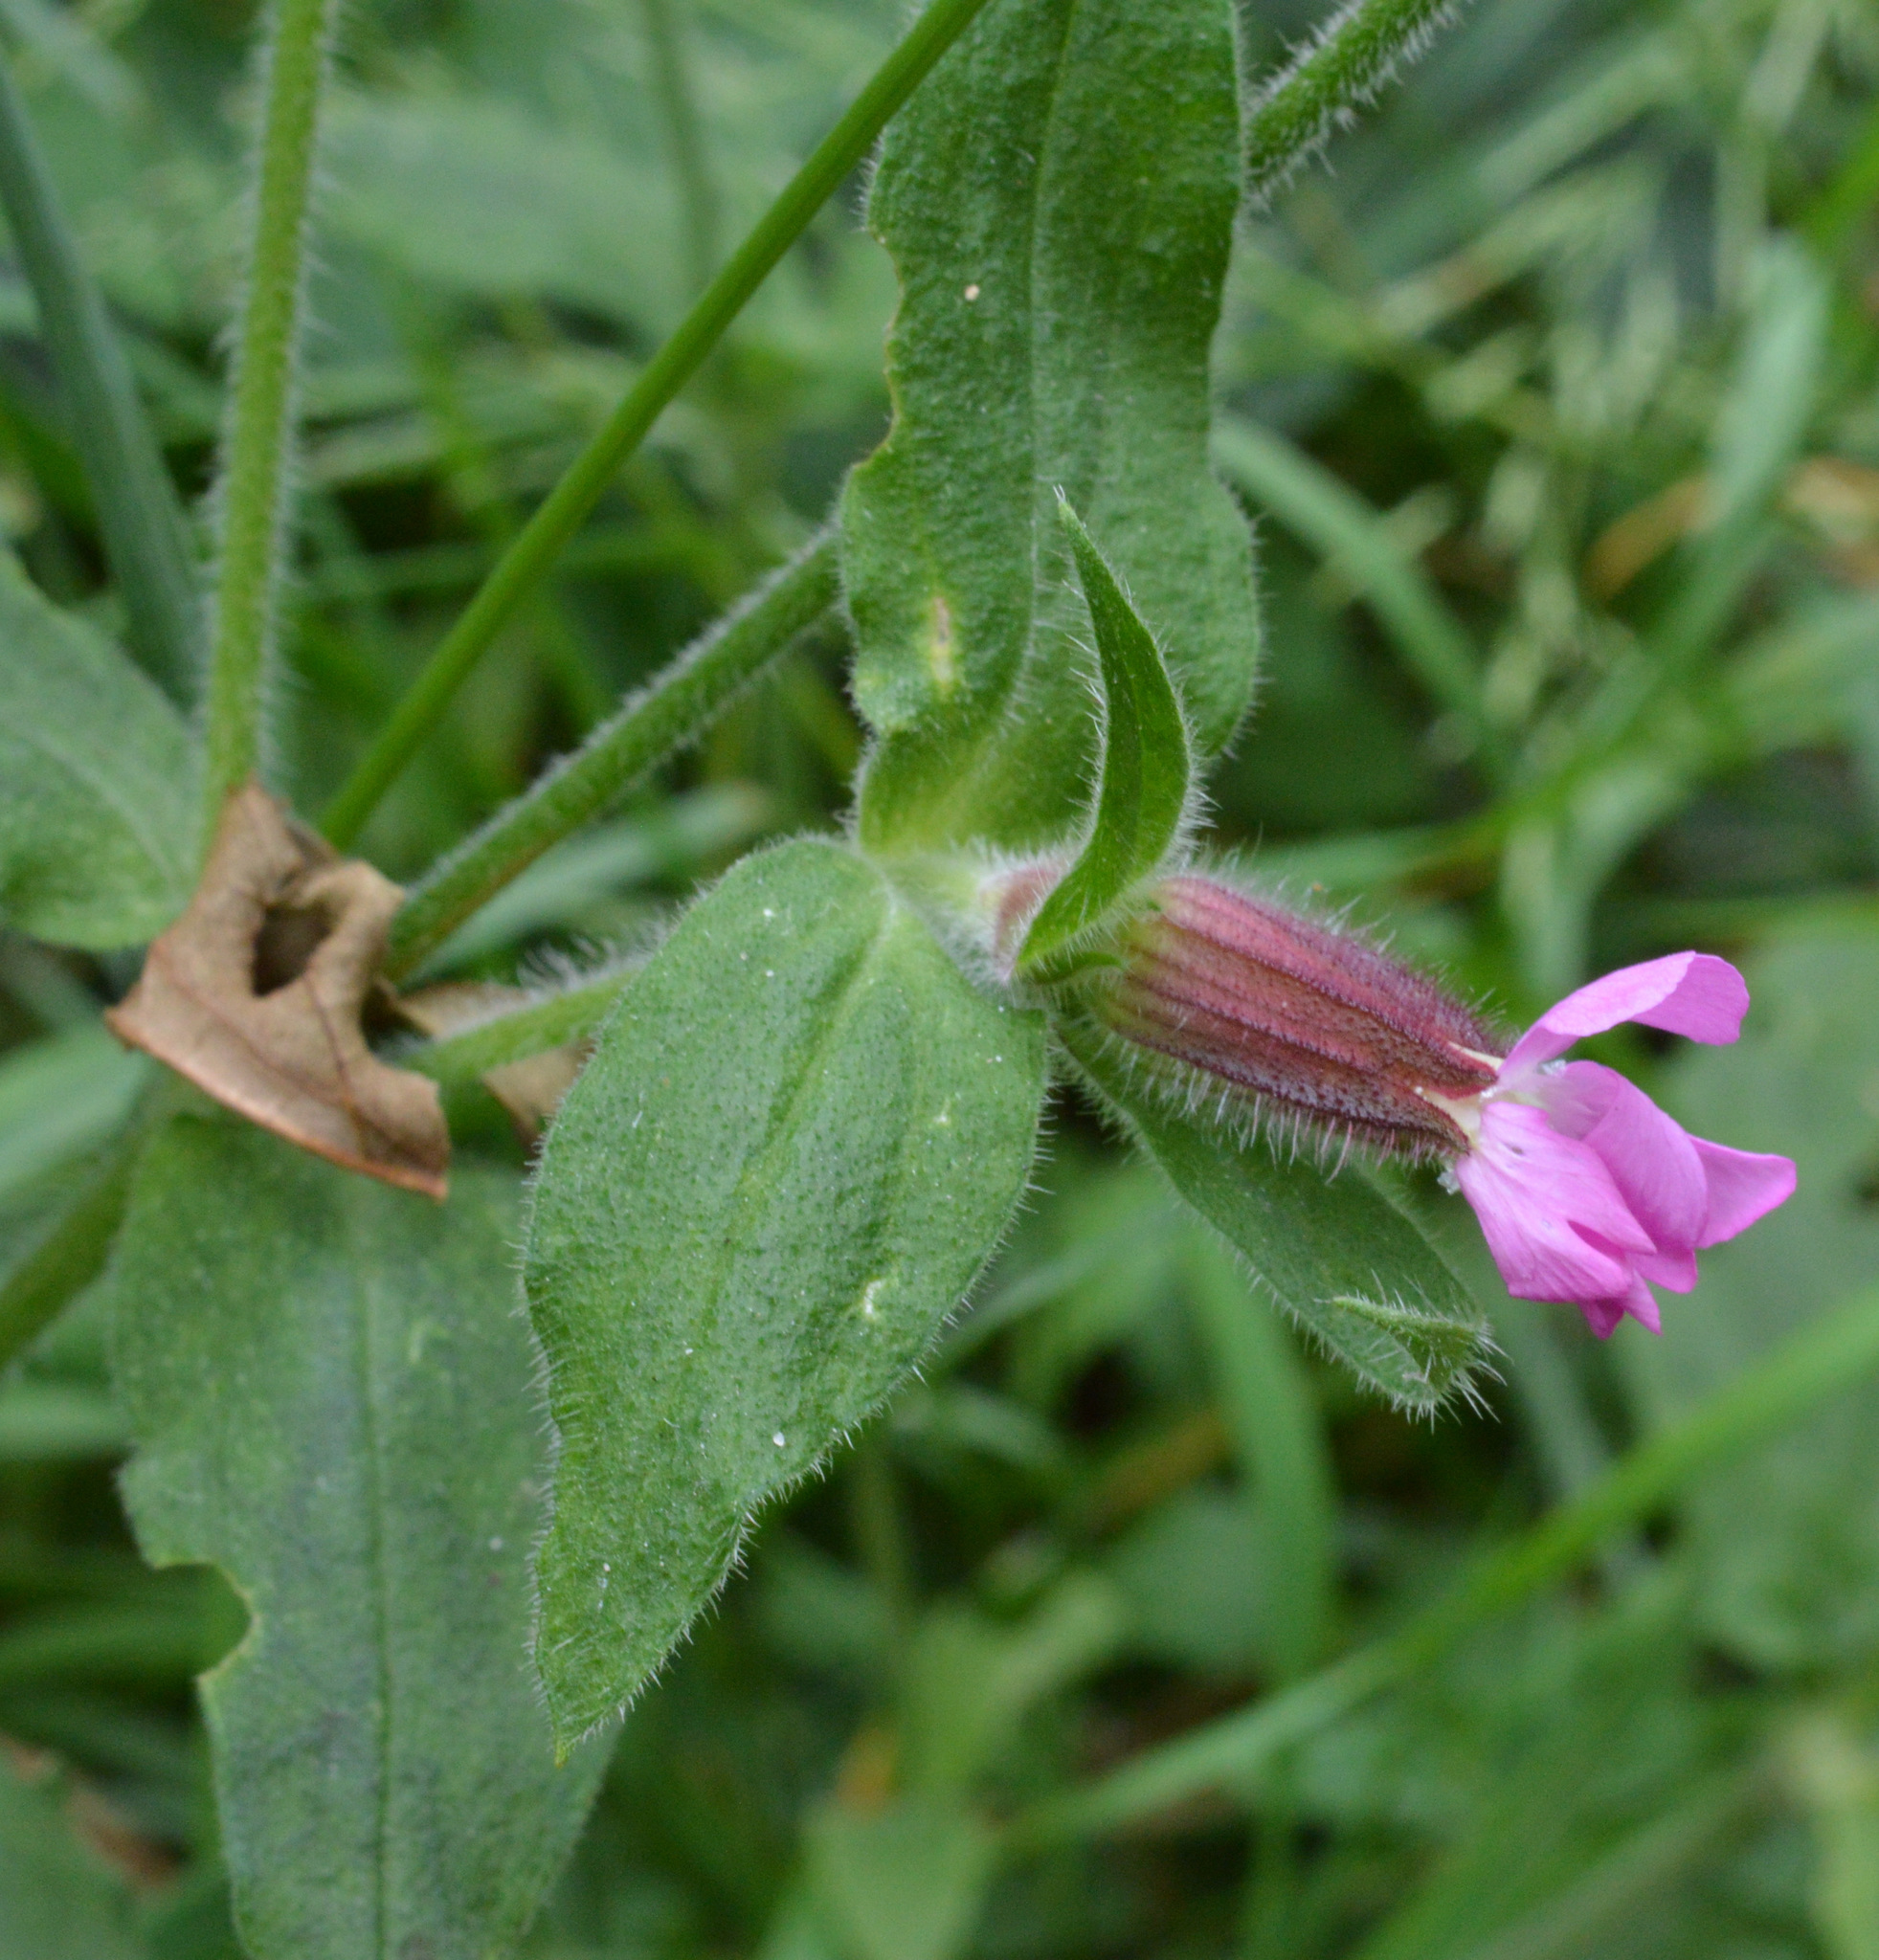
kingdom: Plantae
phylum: Tracheophyta
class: Magnoliopsida
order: Caryophyllales
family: Caryophyllaceae
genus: Silene
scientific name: Silene dioica
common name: Red campion
